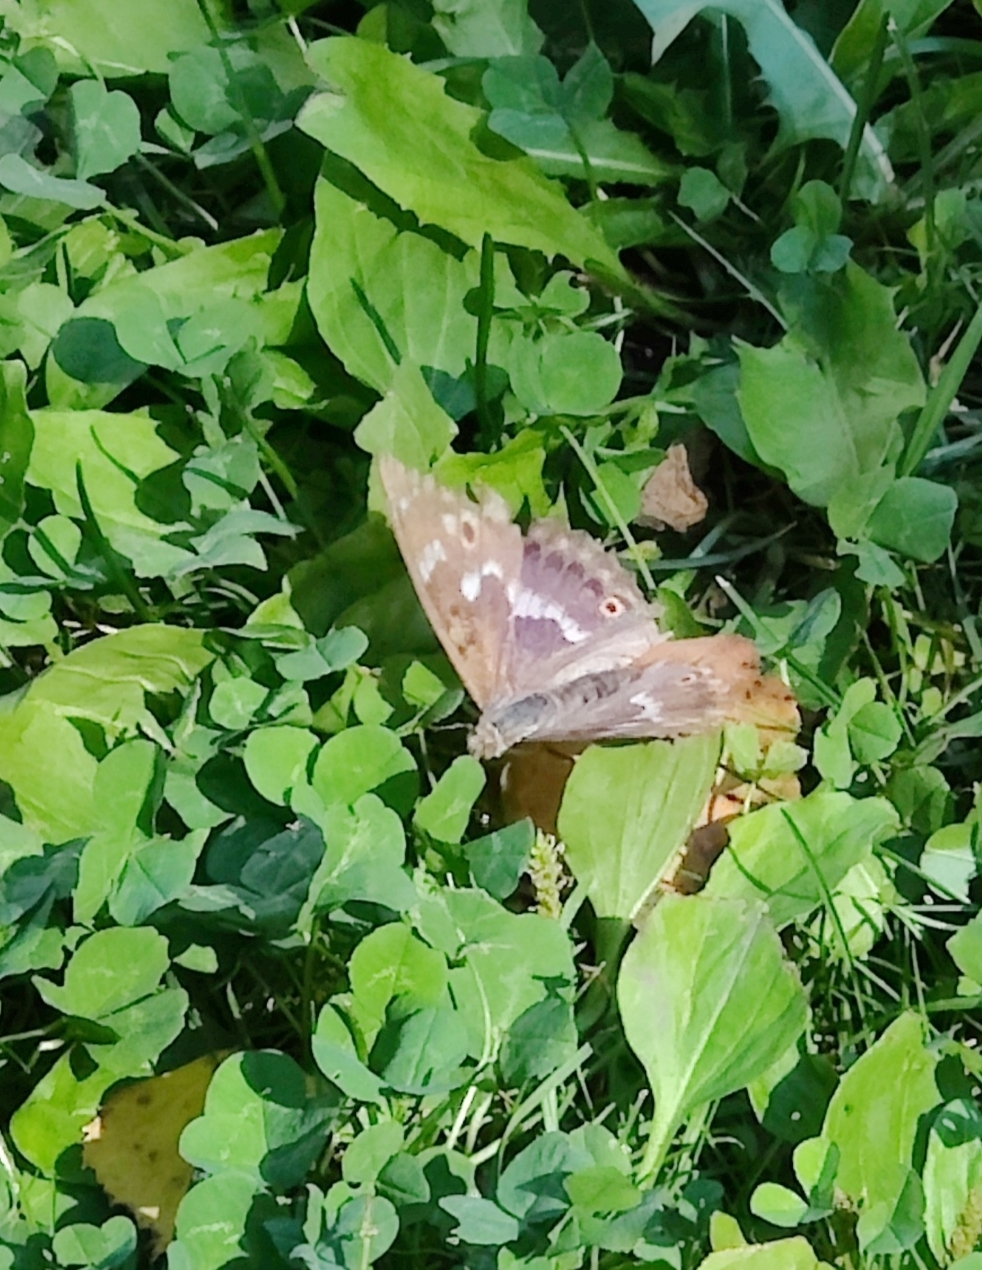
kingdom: Animalia
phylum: Arthropoda
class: Insecta
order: Lepidoptera
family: Nymphalidae
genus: Apatura
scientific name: Apatura ilia
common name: Lesser purple emperor
